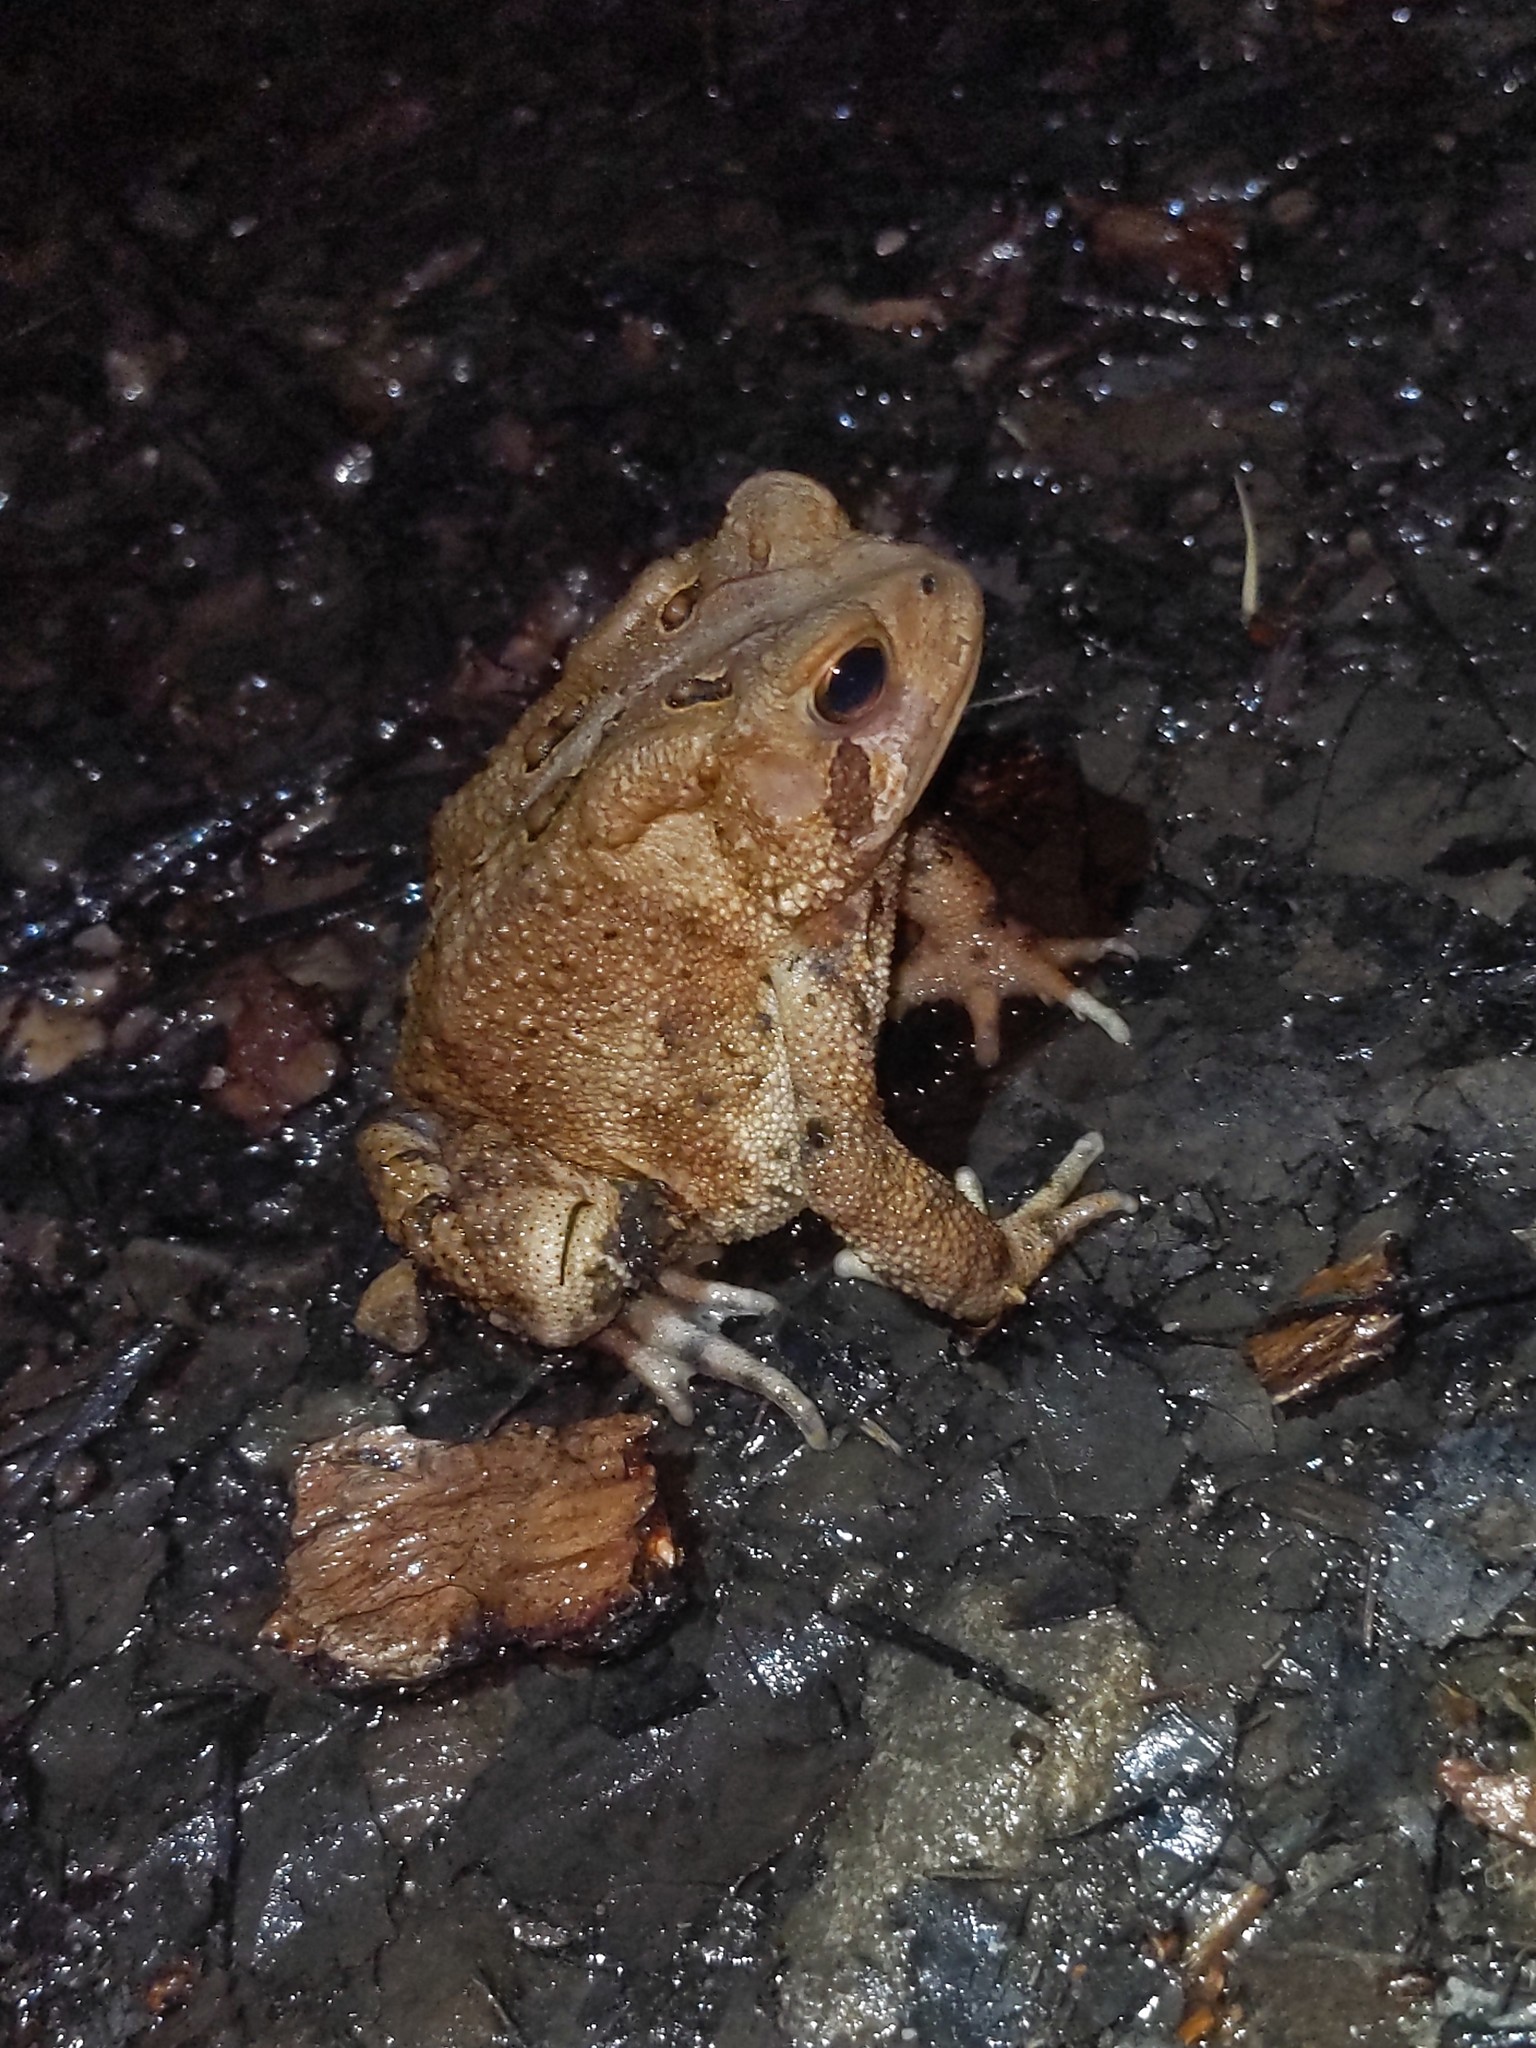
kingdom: Animalia
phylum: Chordata
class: Amphibia
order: Anura
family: Bufonidae
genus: Anaxyrus
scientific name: Anaxyrus americanus
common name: American toad
